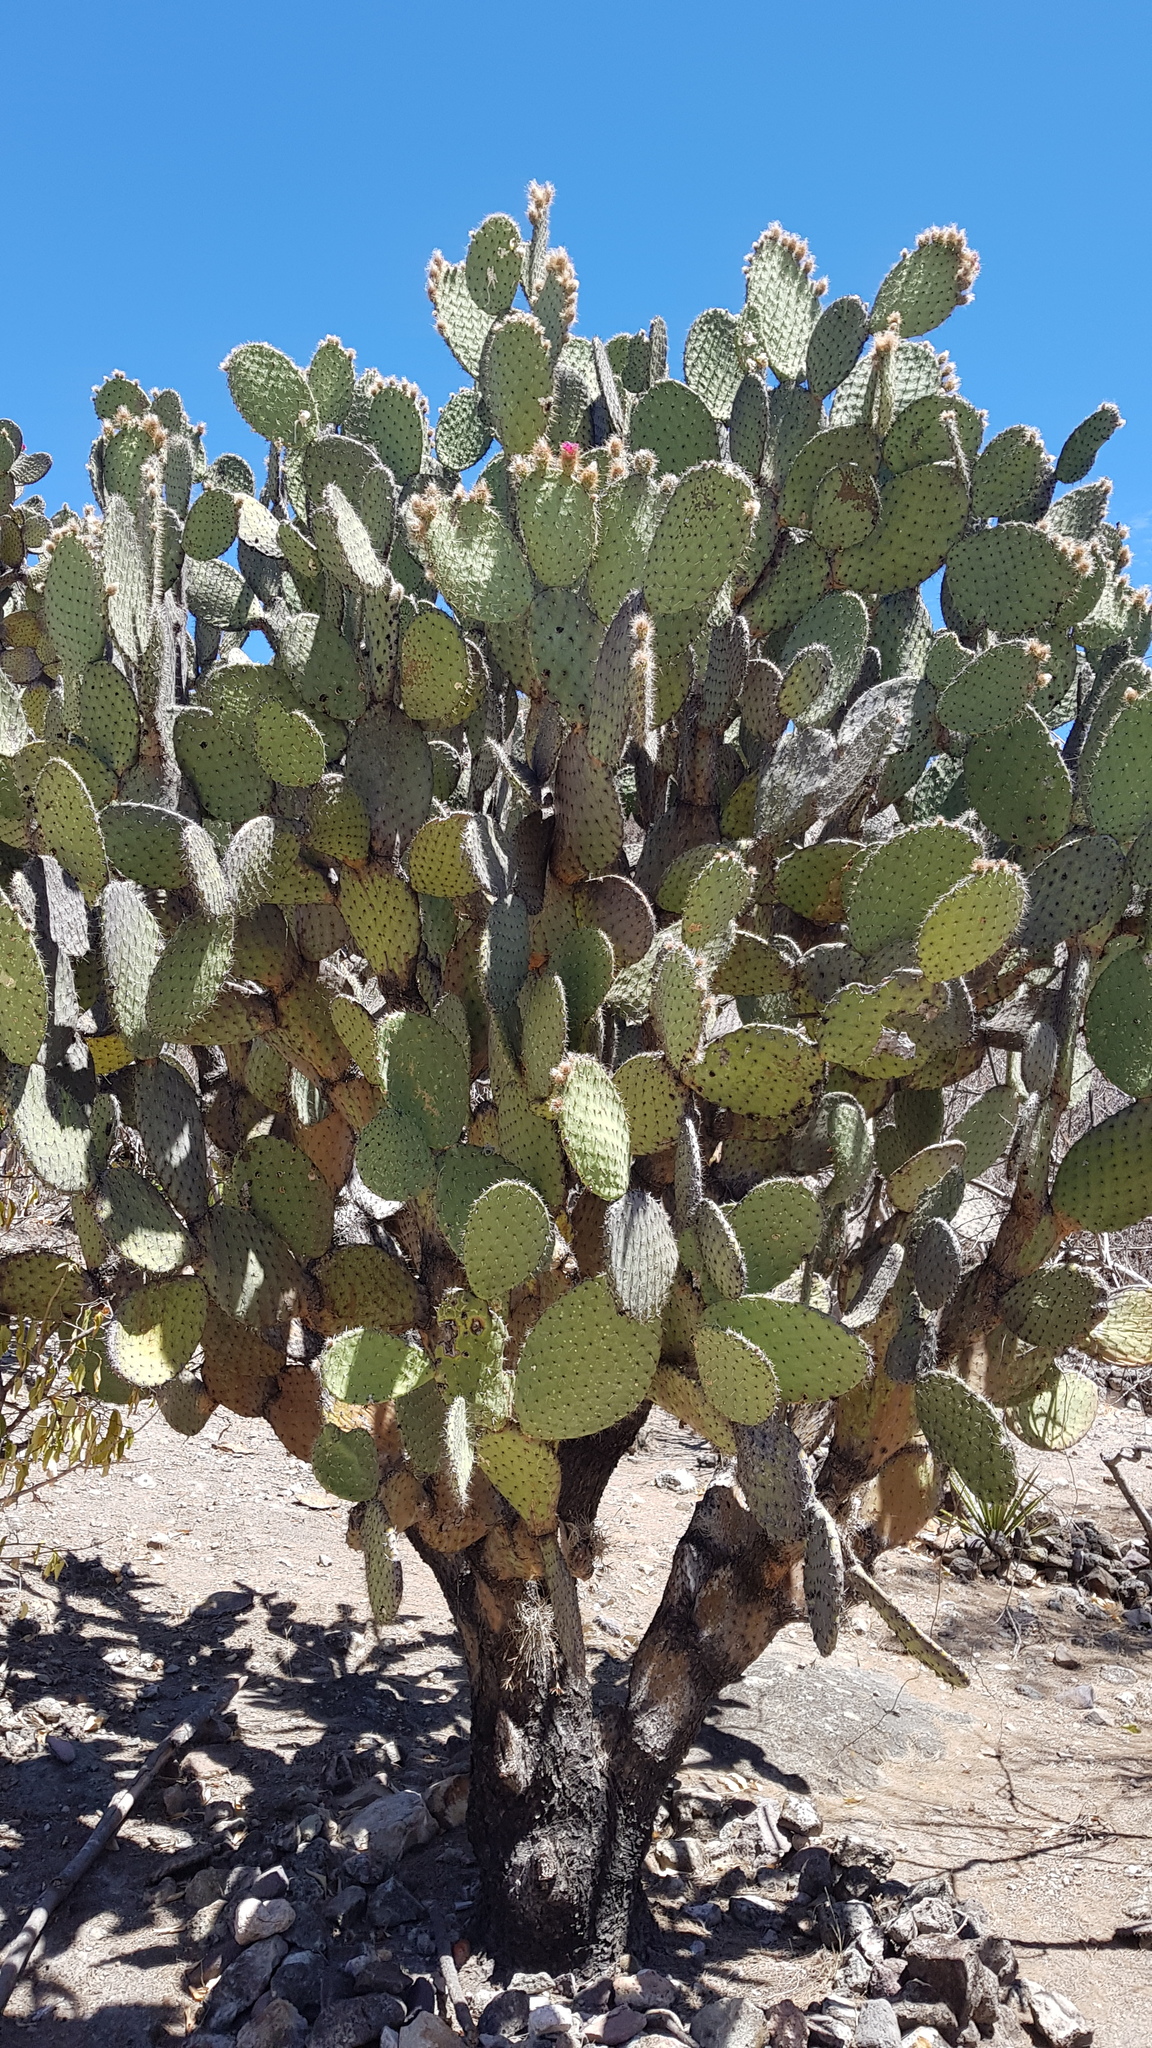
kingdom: Plantae
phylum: Tracheophyta
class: Magnoliopsida
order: Caryophyllales
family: Cactaceae
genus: Opuntia
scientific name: Opuntia pilifera
